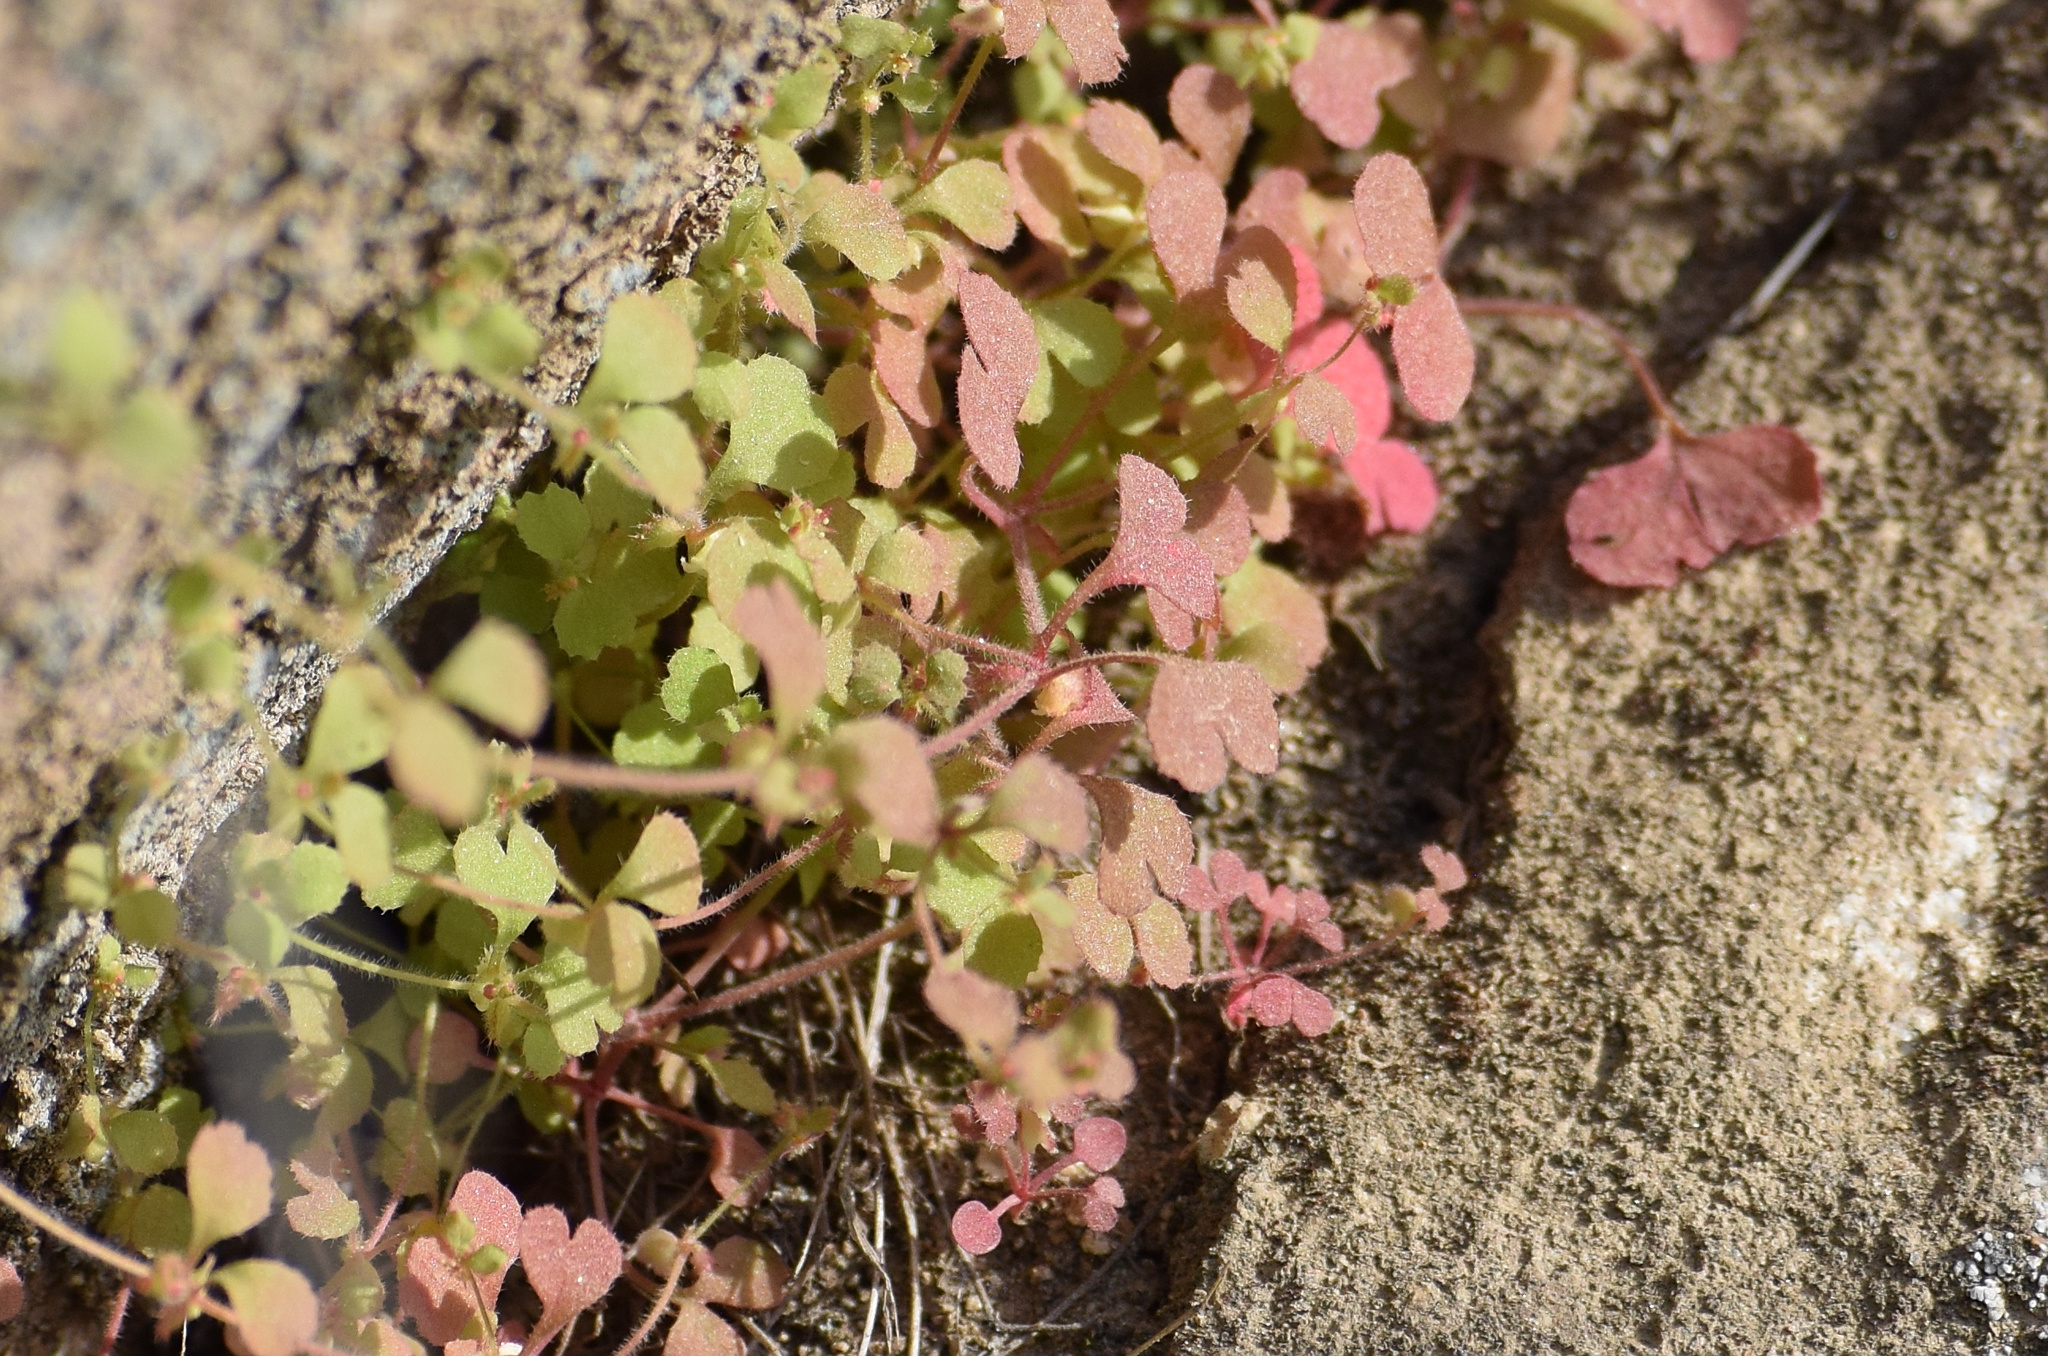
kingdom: Plantae
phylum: Tracheophyta
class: Magnoliopsida
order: Caryophyllales
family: Polygonaceae
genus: Pterostegia
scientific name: Pterostegia drymarioides
